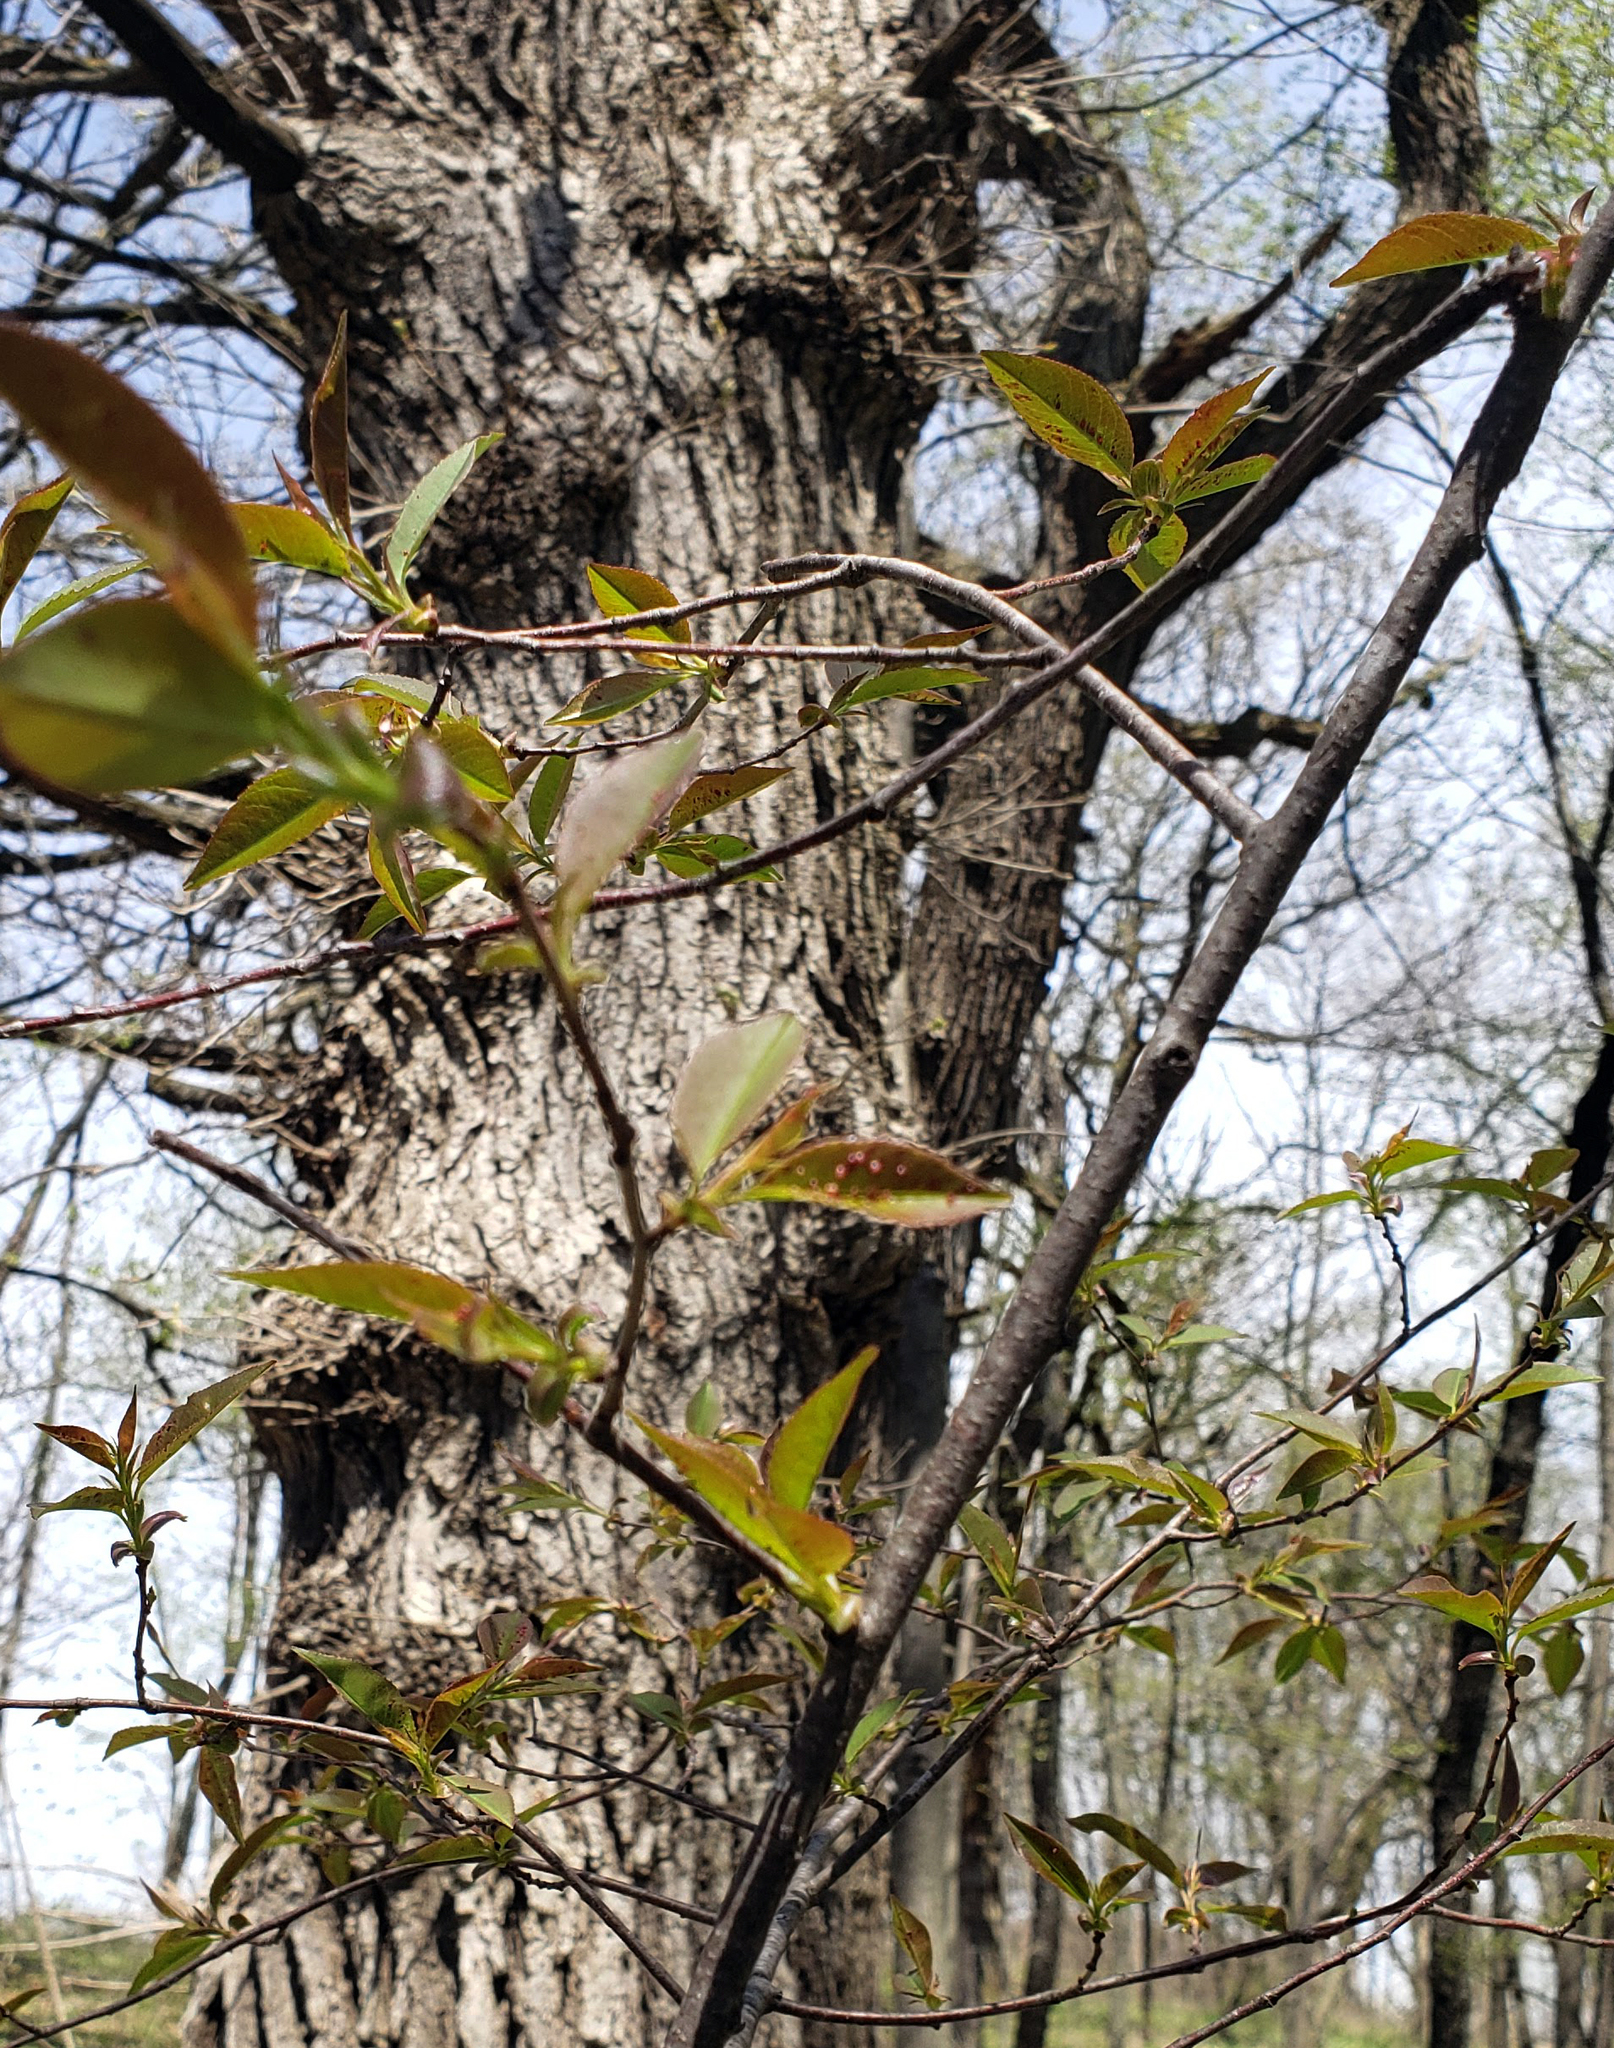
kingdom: Plantae
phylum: Tracheophyta
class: Magnoliopsida
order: Rosales
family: Rosaceae
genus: Prunus
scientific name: Prunus serotina
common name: Black cherry
